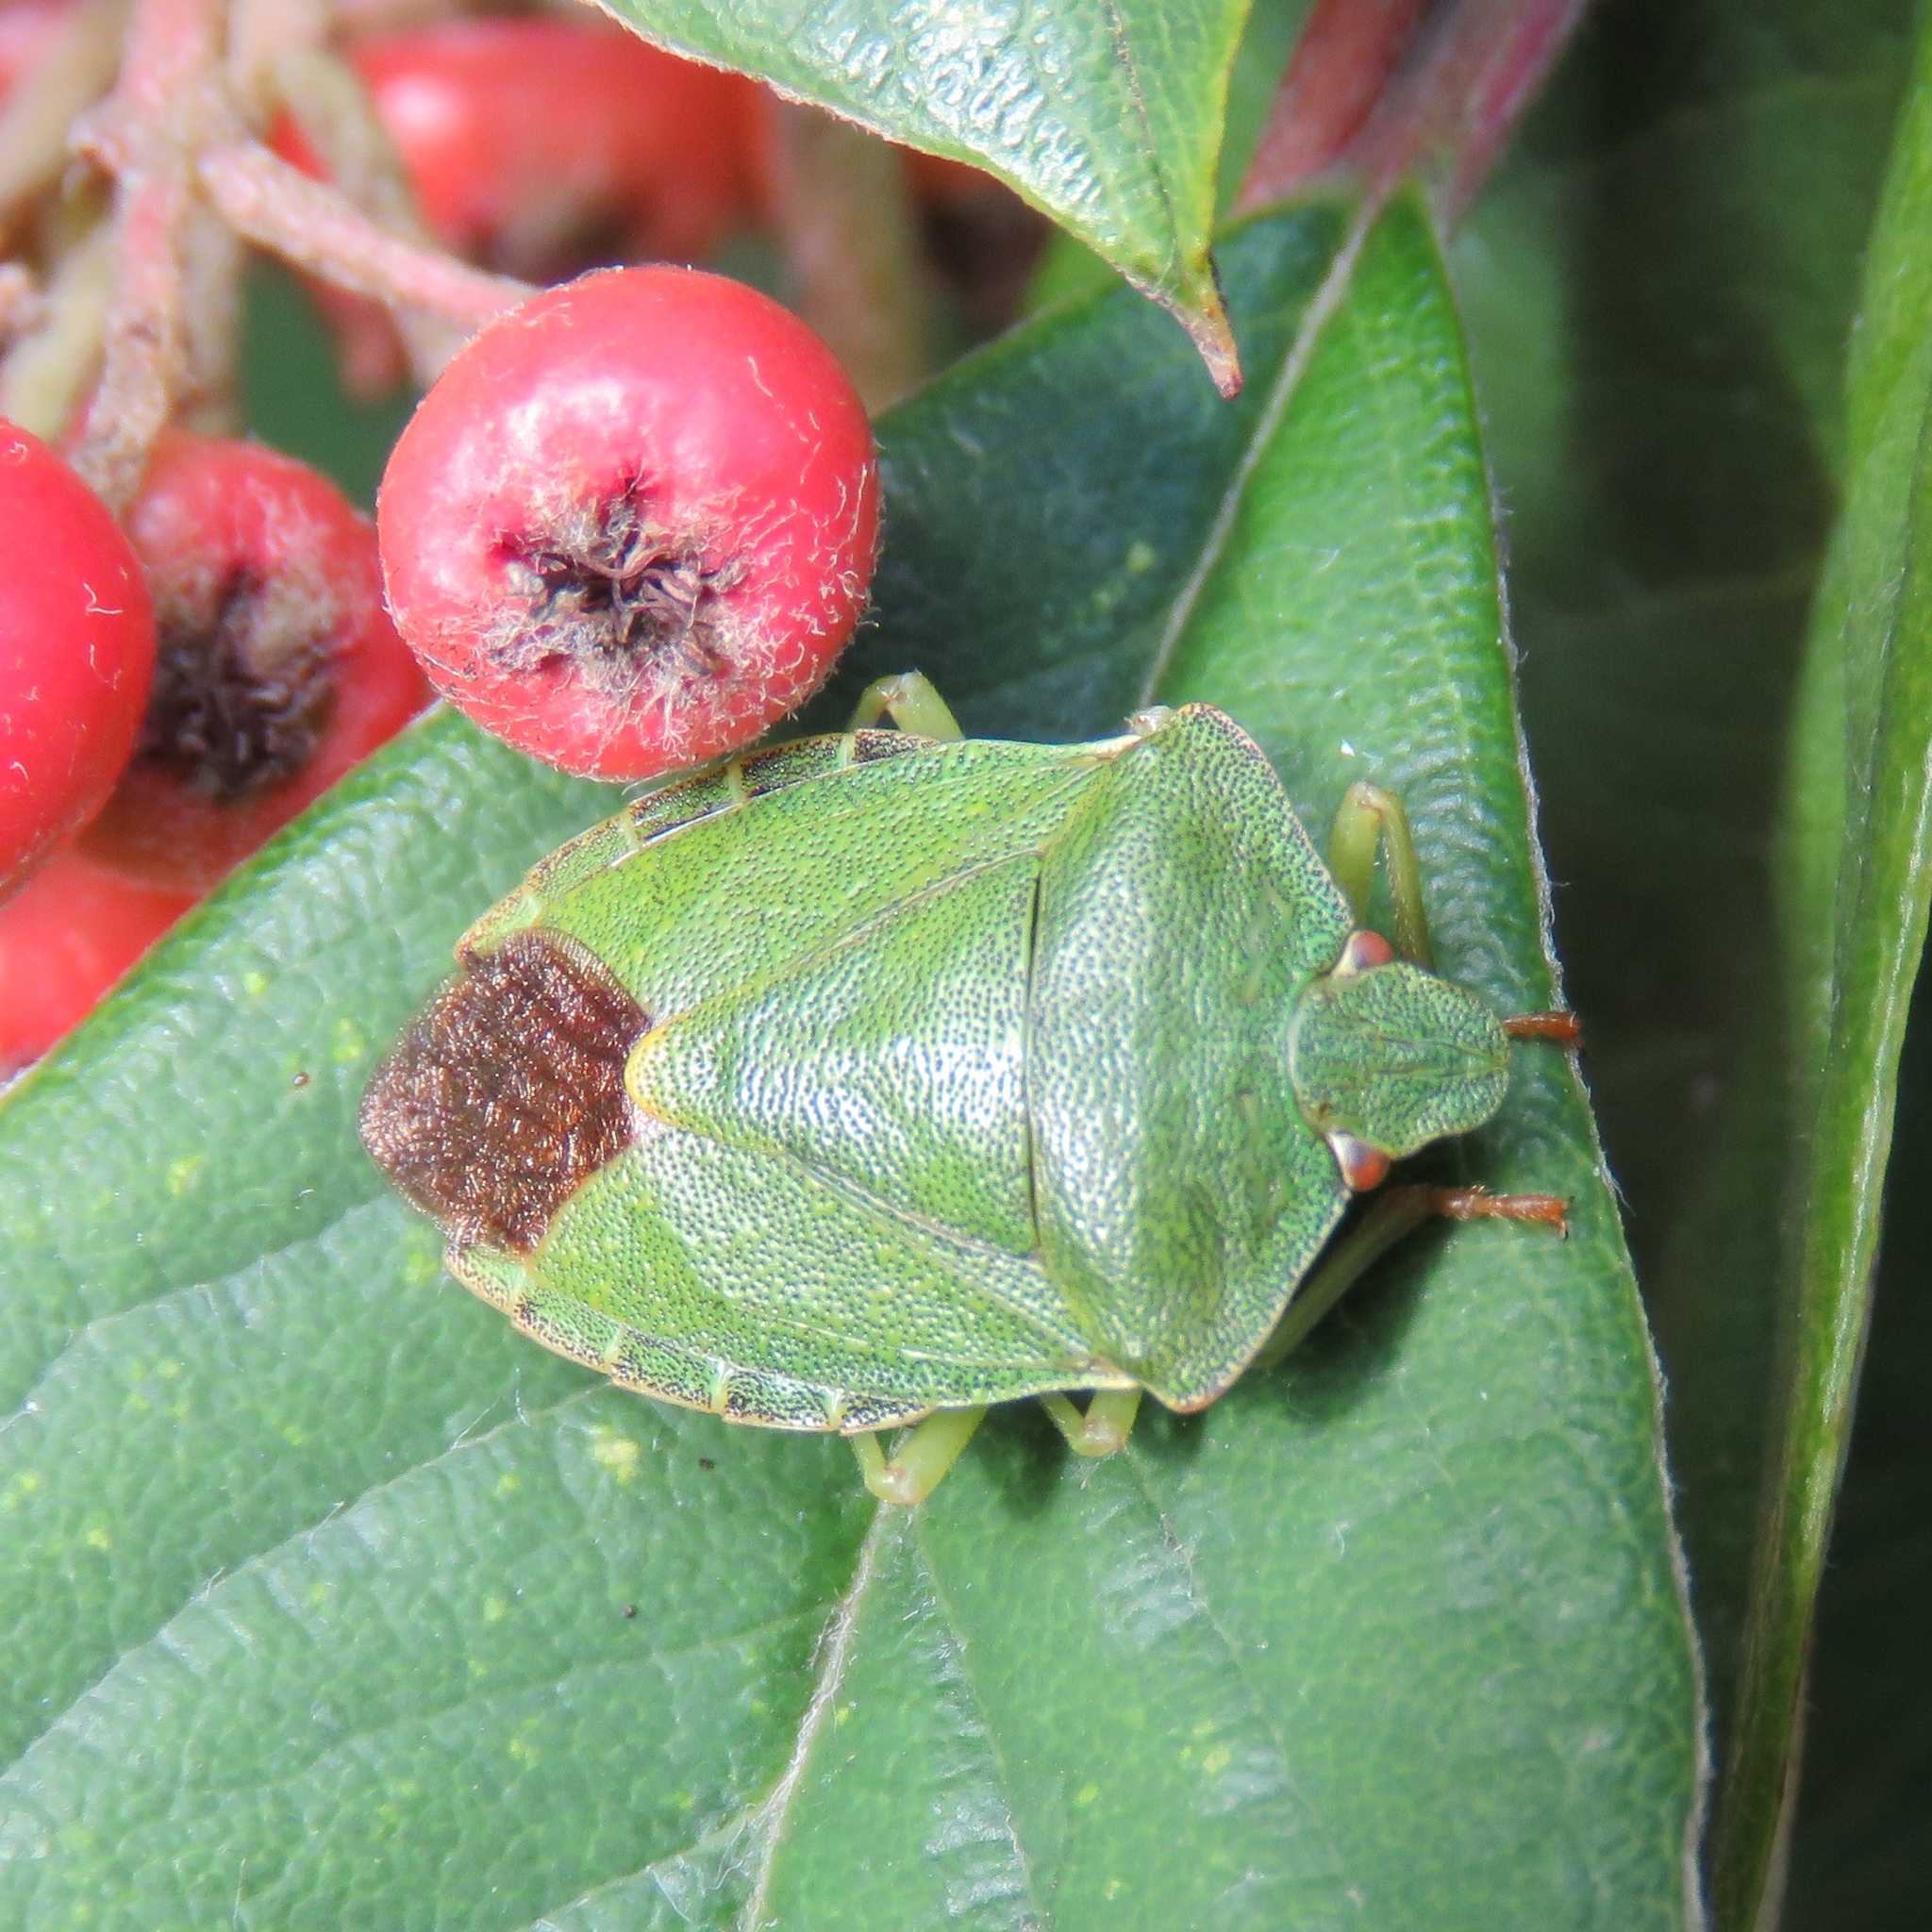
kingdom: Animalia
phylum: Arthropoda
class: Insecta
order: Hemiptera
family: Pentatomidae
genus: Palomena
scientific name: Palomena prasina
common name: Green shieldbug
